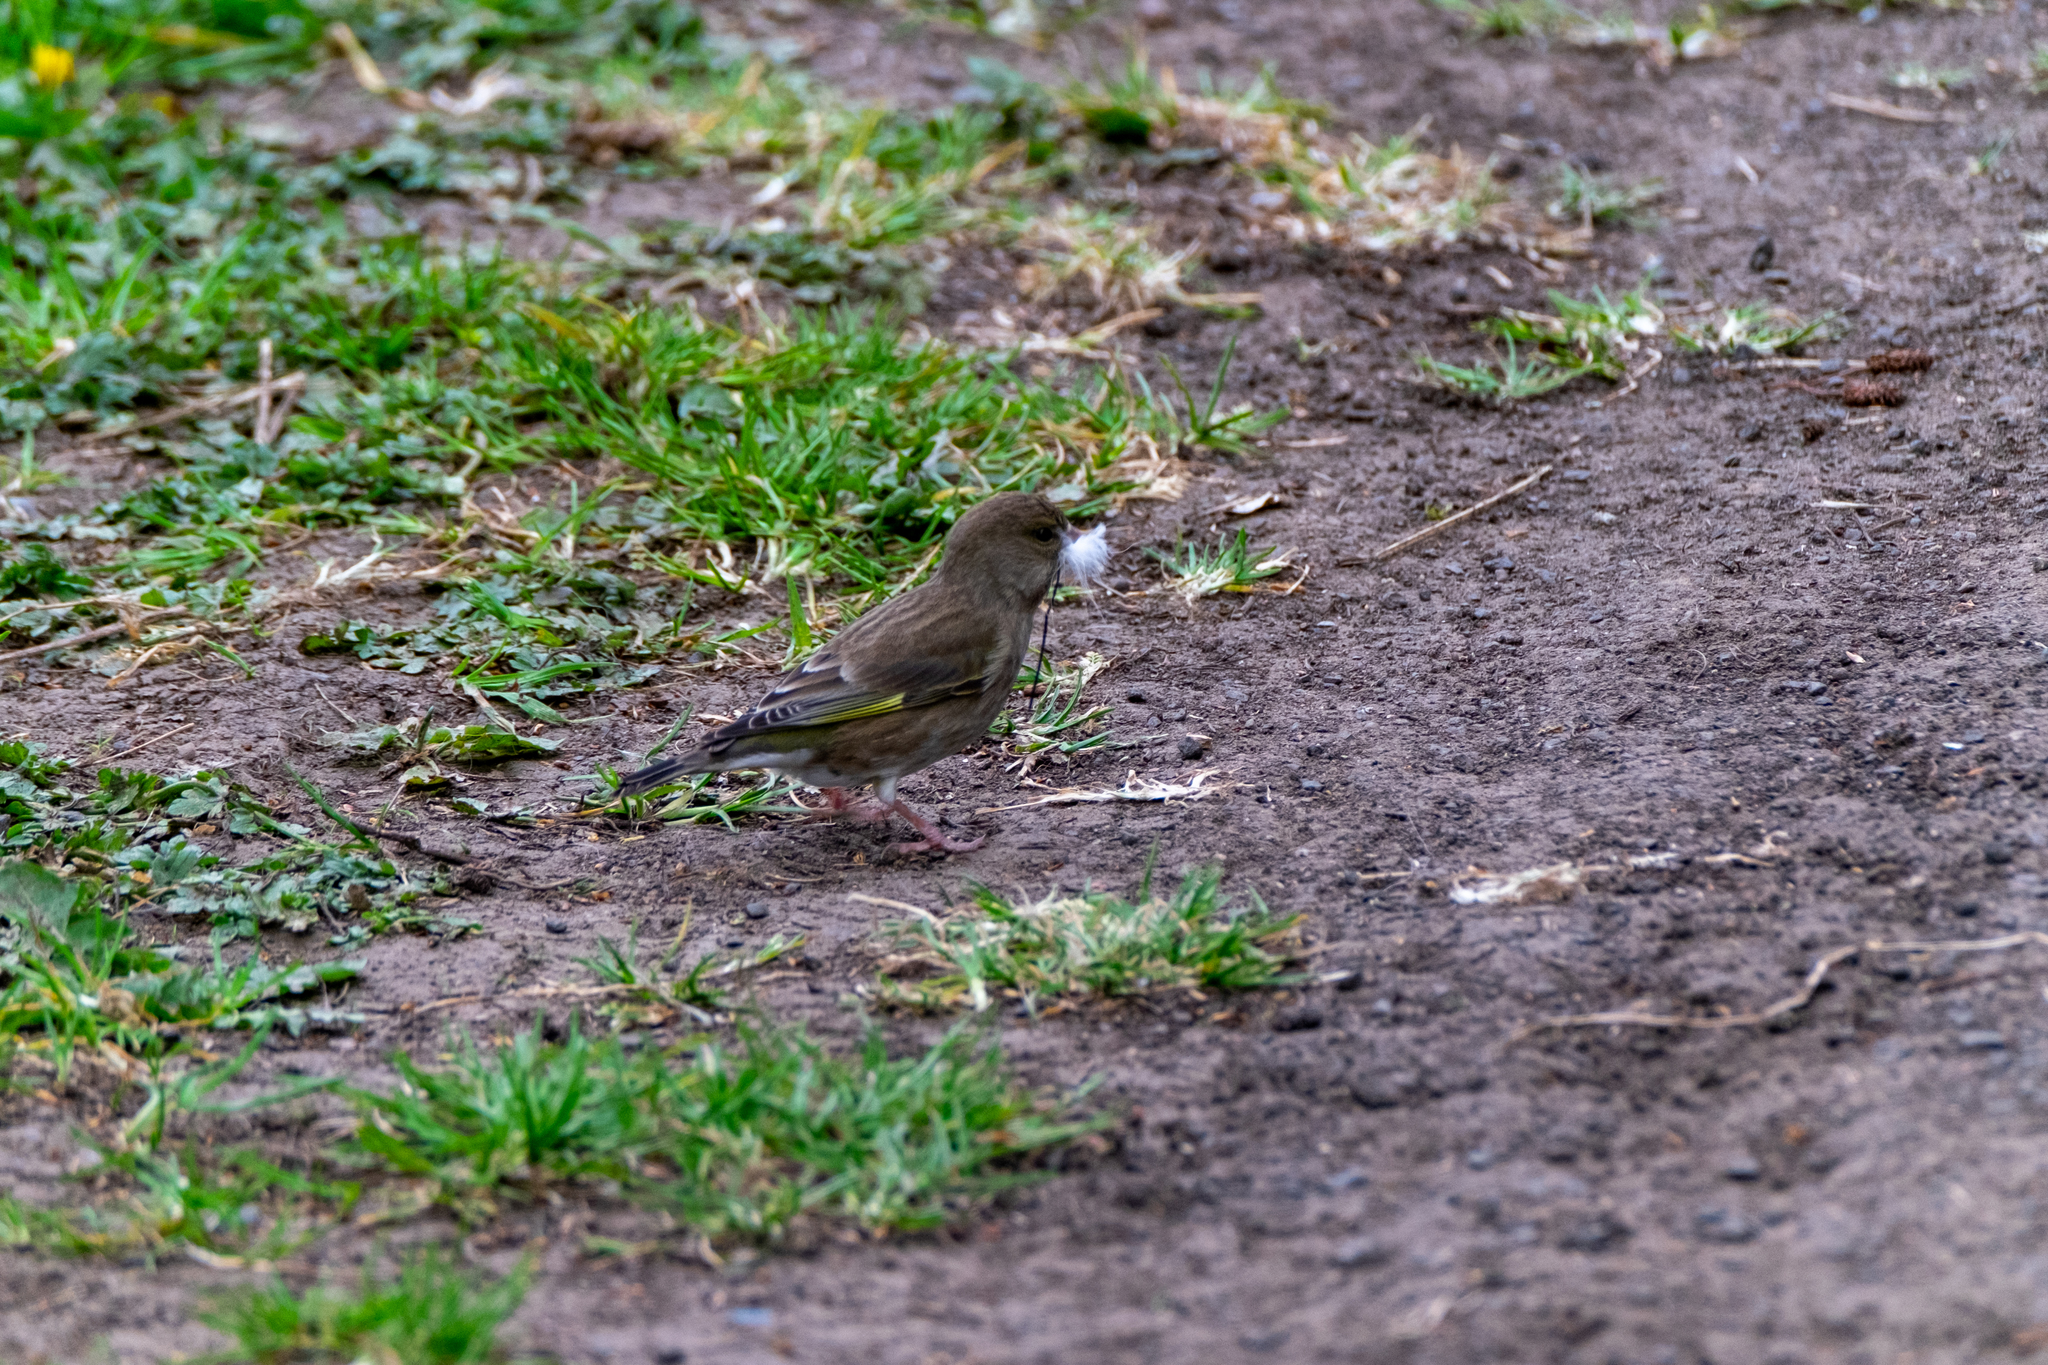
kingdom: Plantae
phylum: Tracheophyta
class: Liliopsida
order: Poales
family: Poaceae
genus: Chloris
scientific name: Chloris chloris
